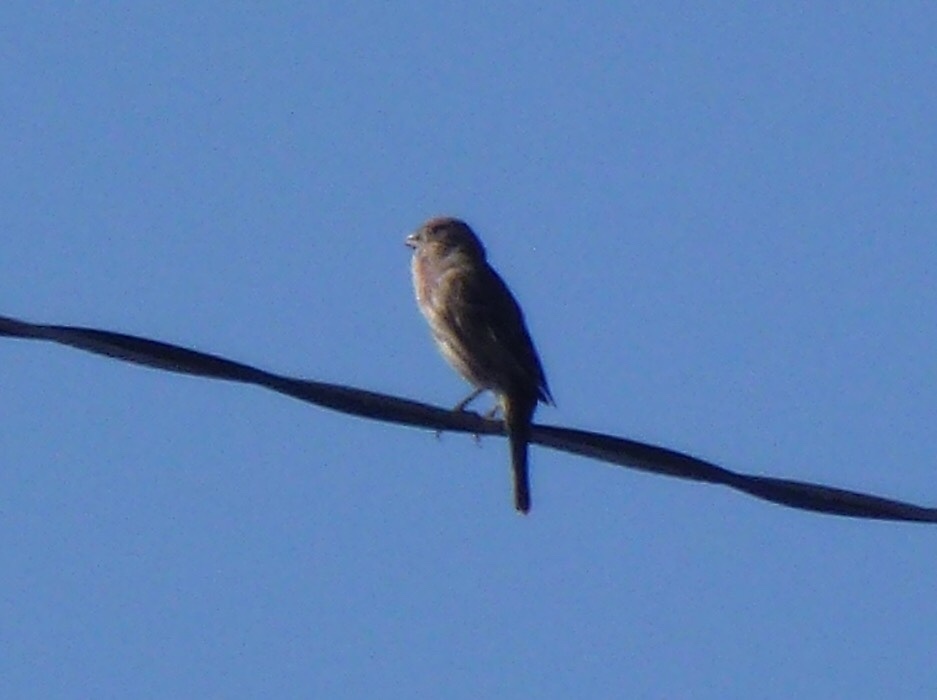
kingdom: Animalia
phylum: Chordata
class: Aves
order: Passeriformes
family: Fringillidae
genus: Haemorhous
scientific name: Haemorhous mexicanus
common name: House finch
